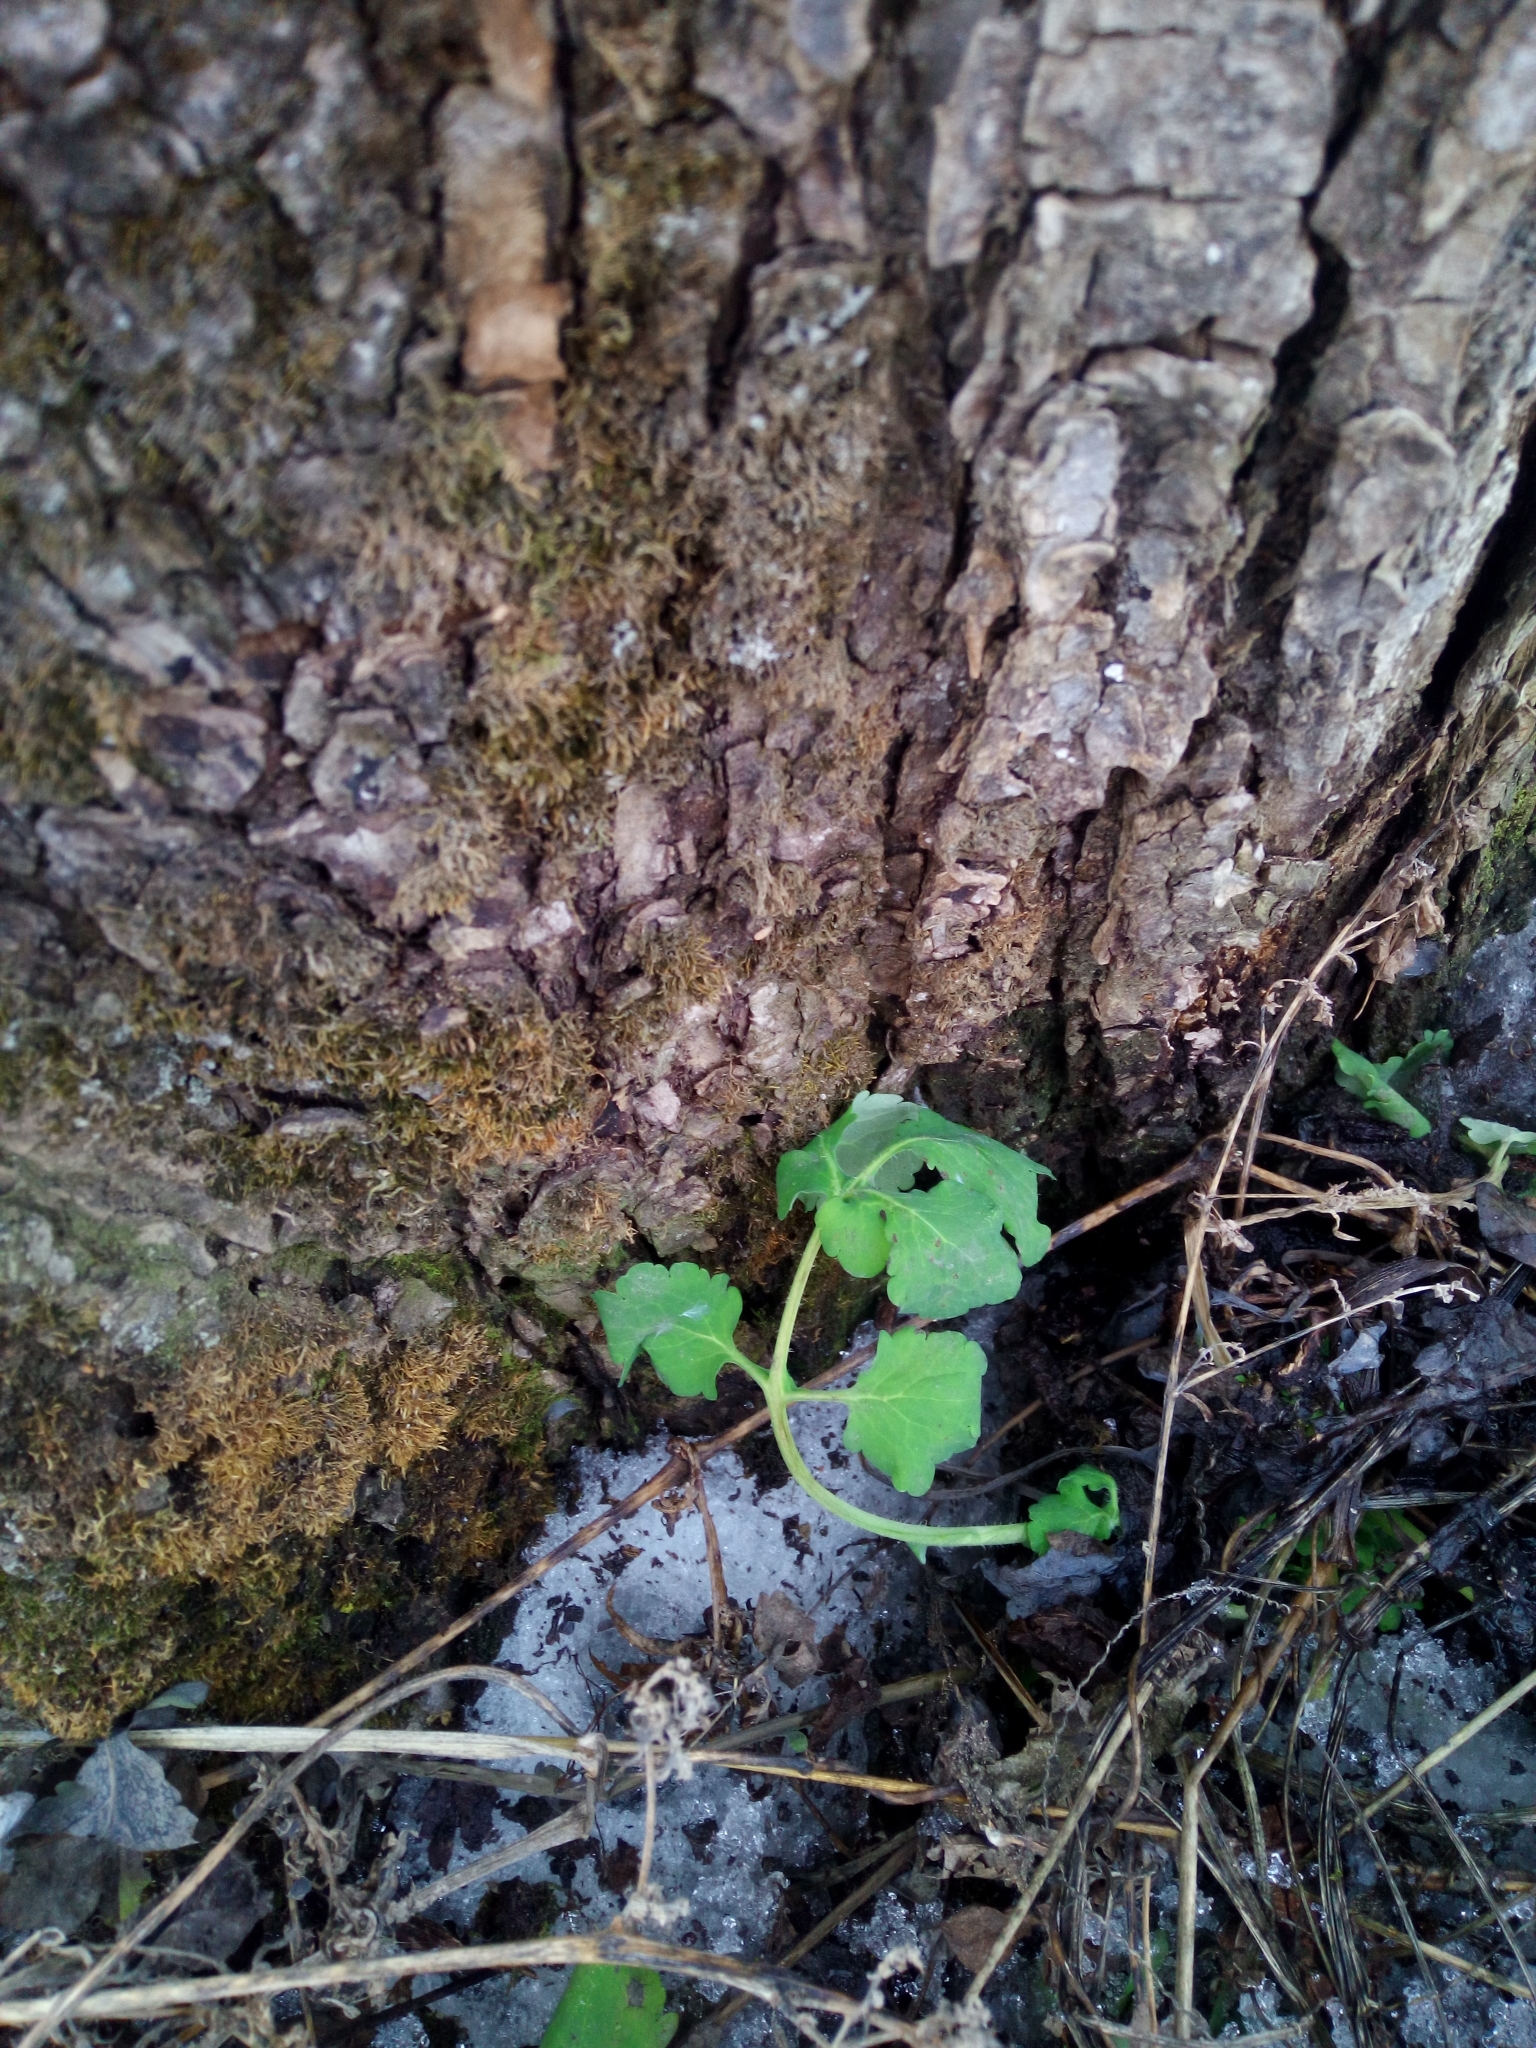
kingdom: Plantae
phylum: Tracheophyta
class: Magnoliopsida
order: Ranunculales
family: Papaveraceae
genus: Chelidonium
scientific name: Chelidonium majus
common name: Greater celandine
